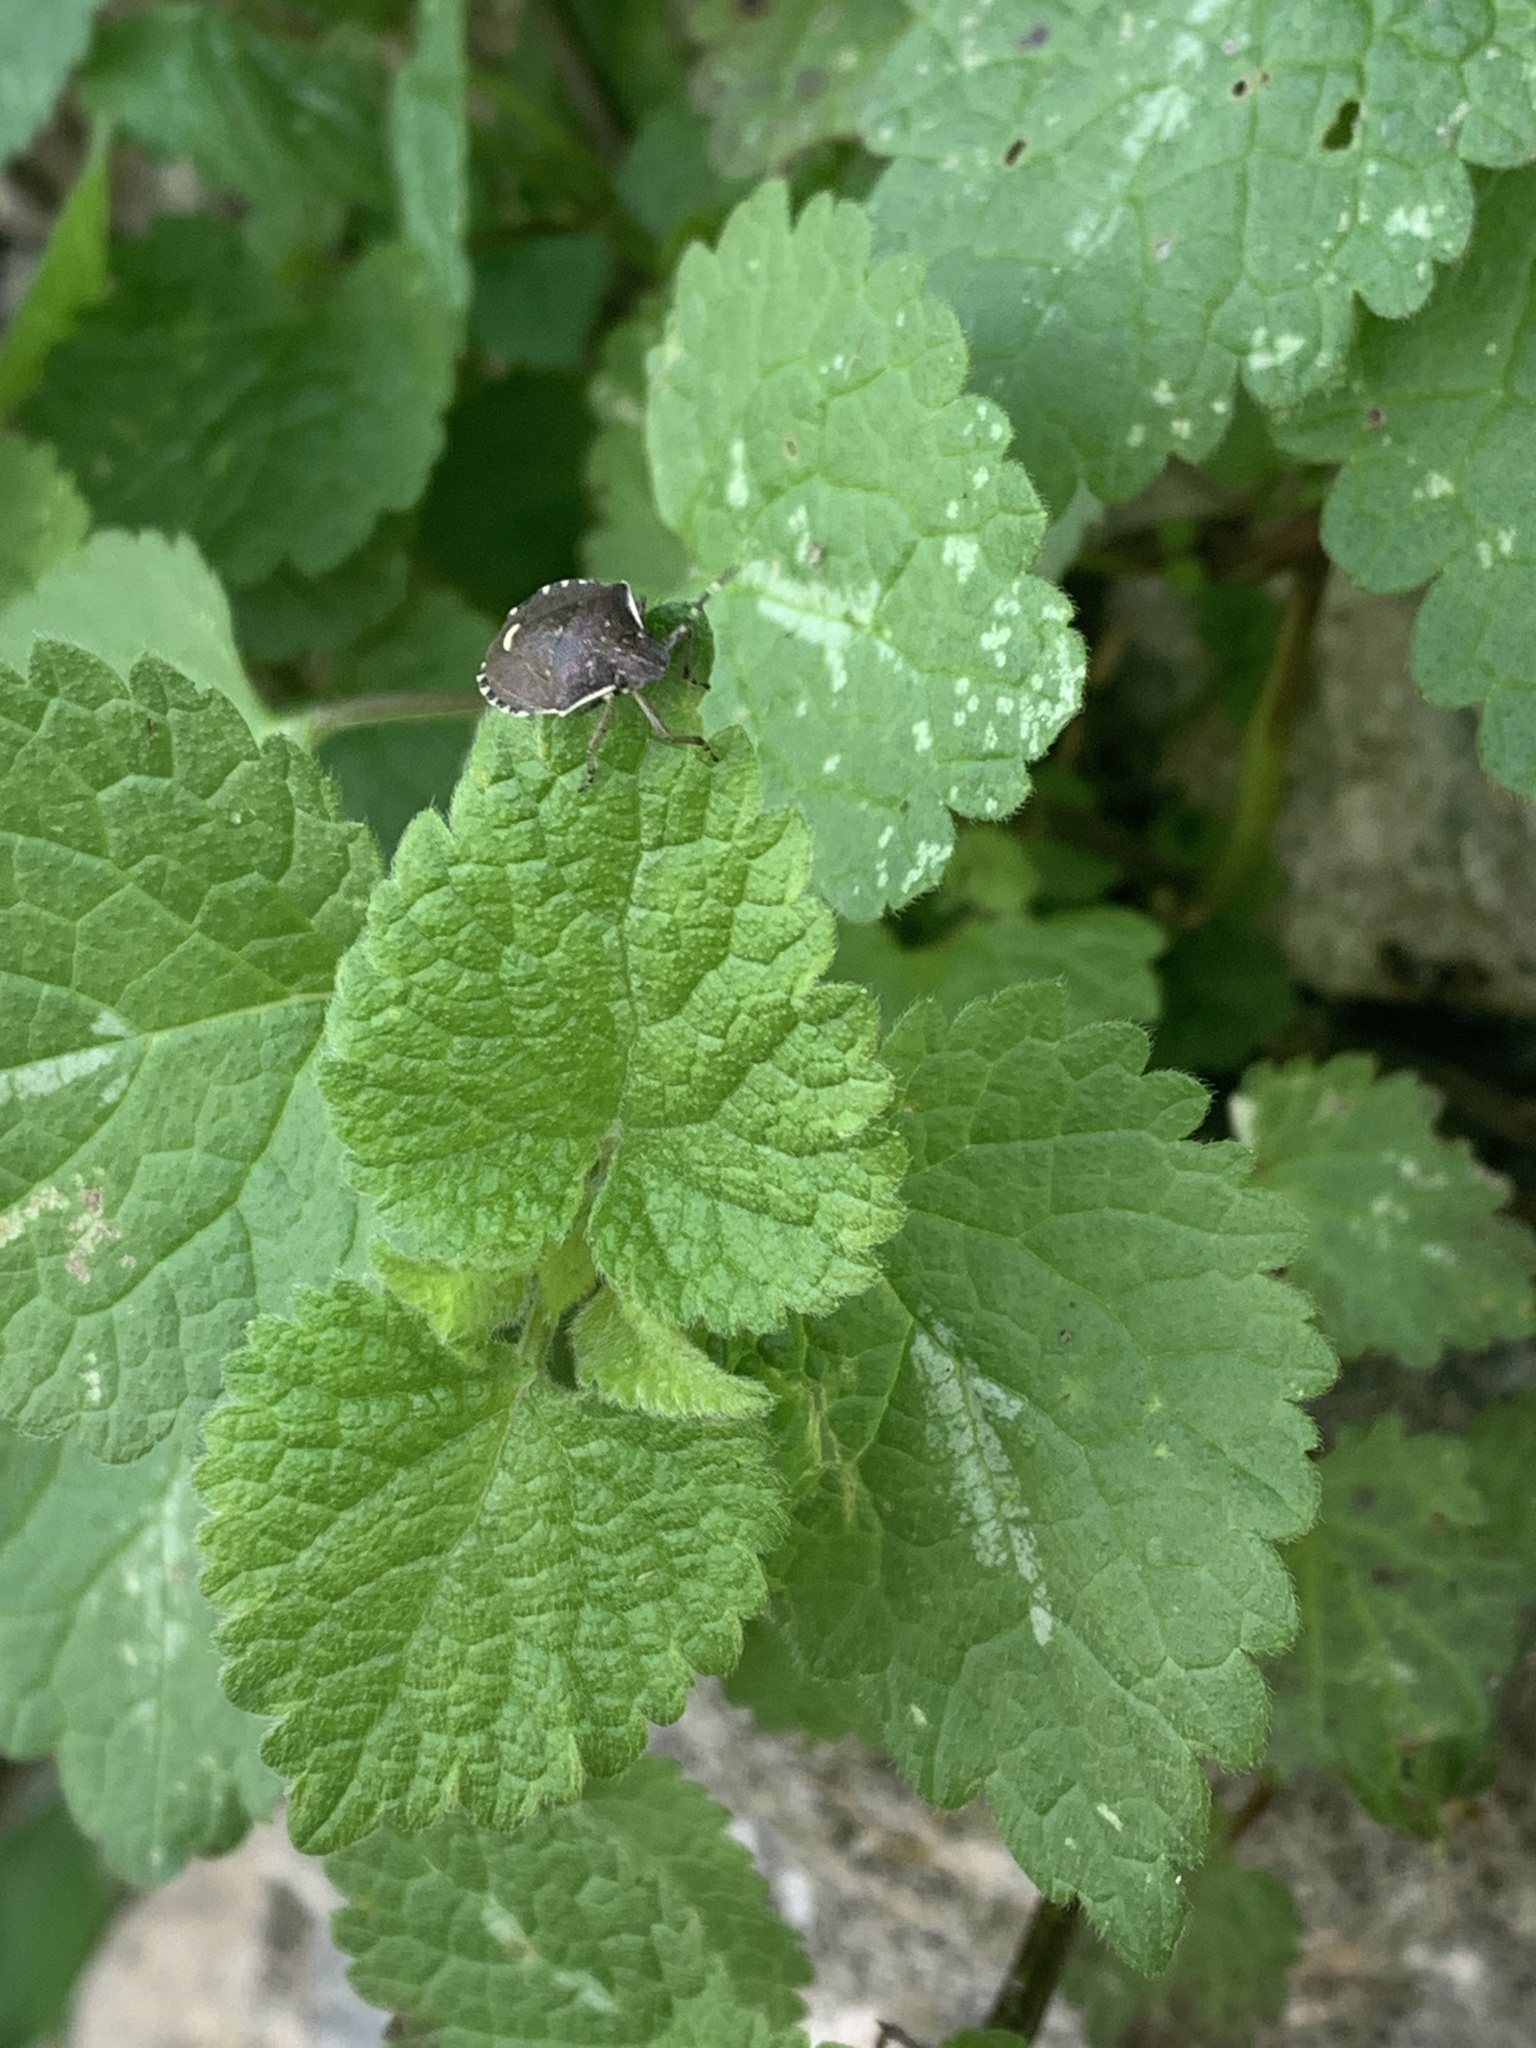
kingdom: Animalia
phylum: Arthropoda
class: Insecta
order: Hemiptera
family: Pentatomidae
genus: Holcostethus
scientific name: Holcostethus sphacelatus
